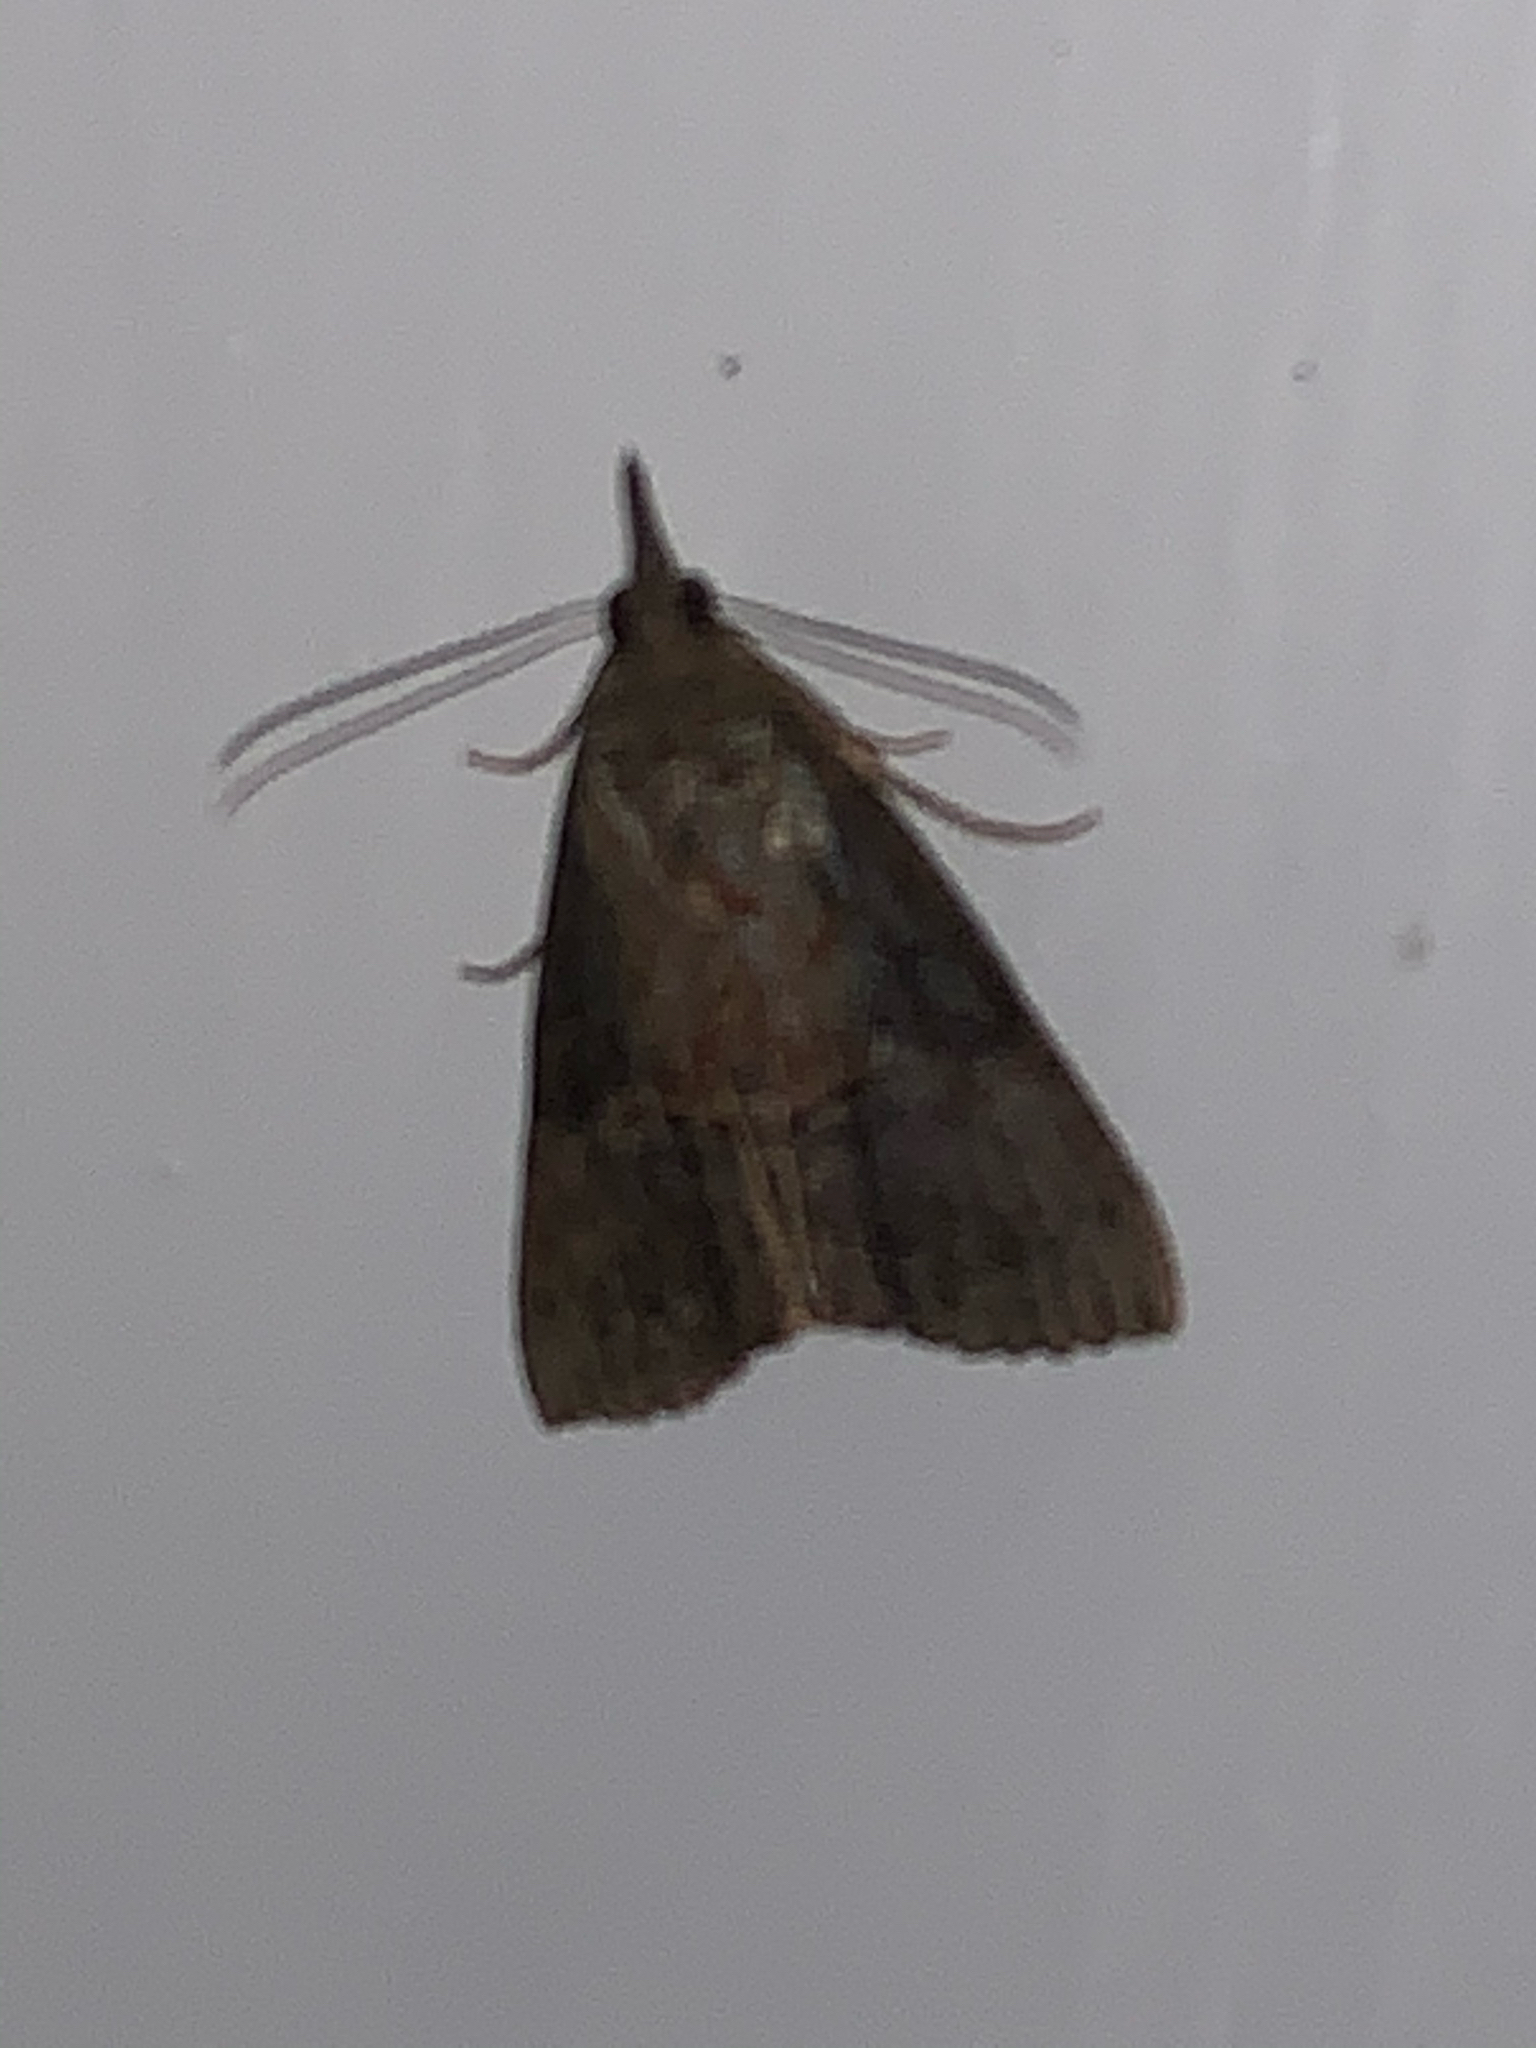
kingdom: Animalia
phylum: Arthropoda
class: Insecta
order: Lepidoptera
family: Erebidae
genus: Hypena
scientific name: Hypena scabra
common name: Green cloverworm
